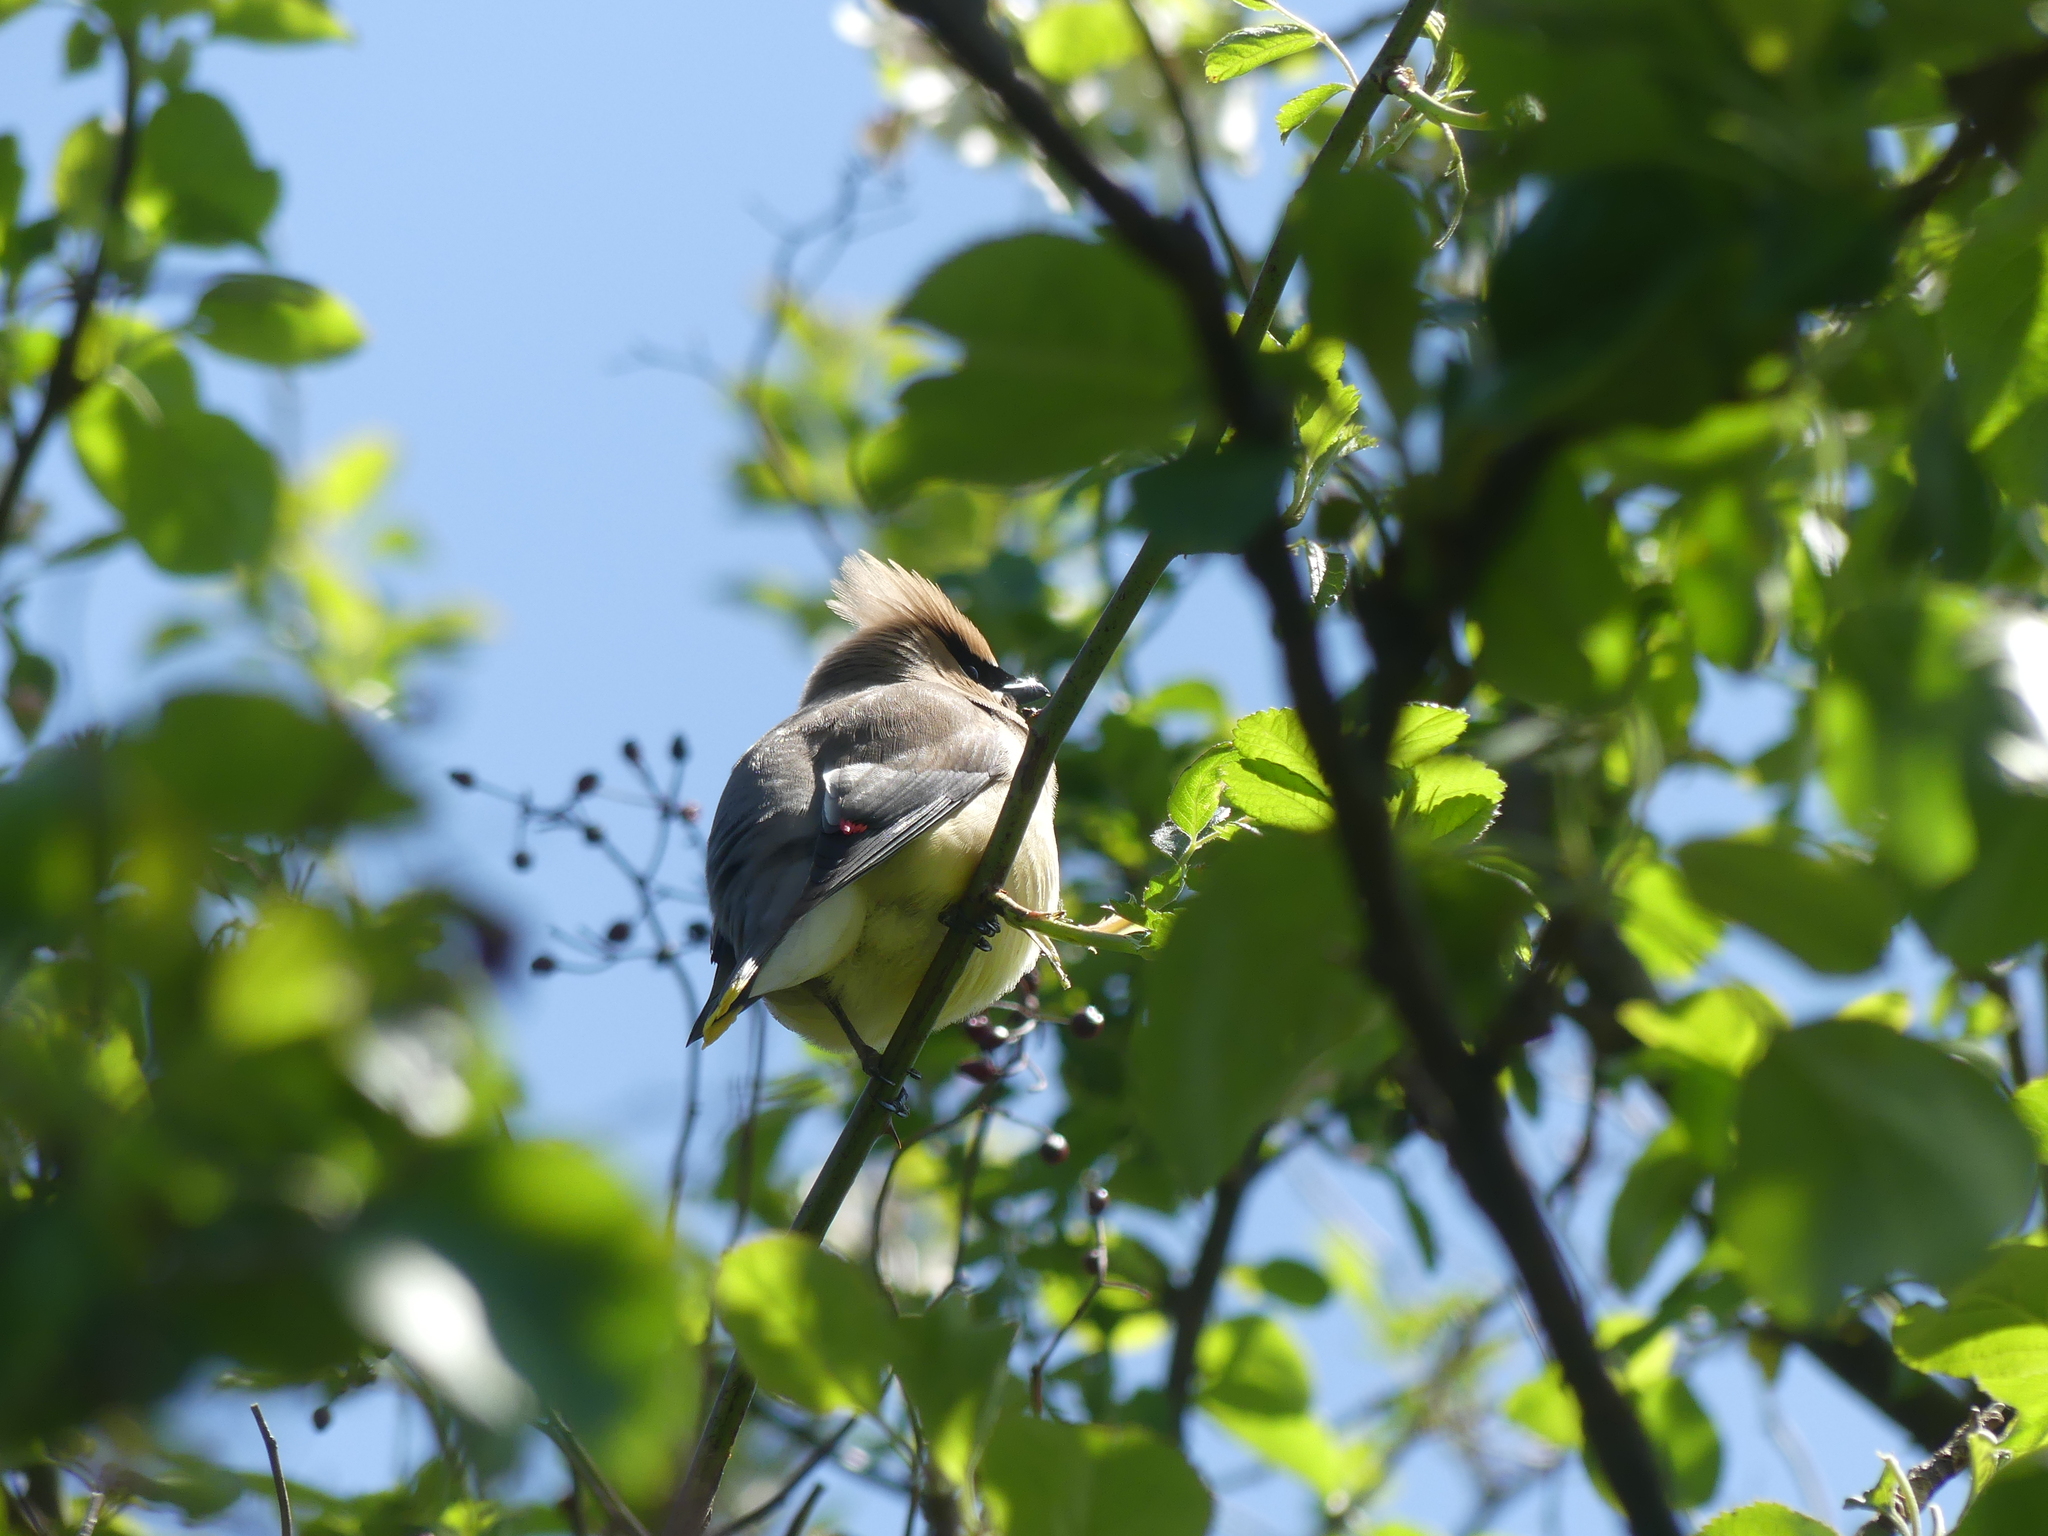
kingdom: Animalia
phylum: Chordata
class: Aves
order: Passeriformes
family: Bombycillidae
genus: Bombycilla
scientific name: Bombycilla cedrorum
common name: Cedar waxwing
